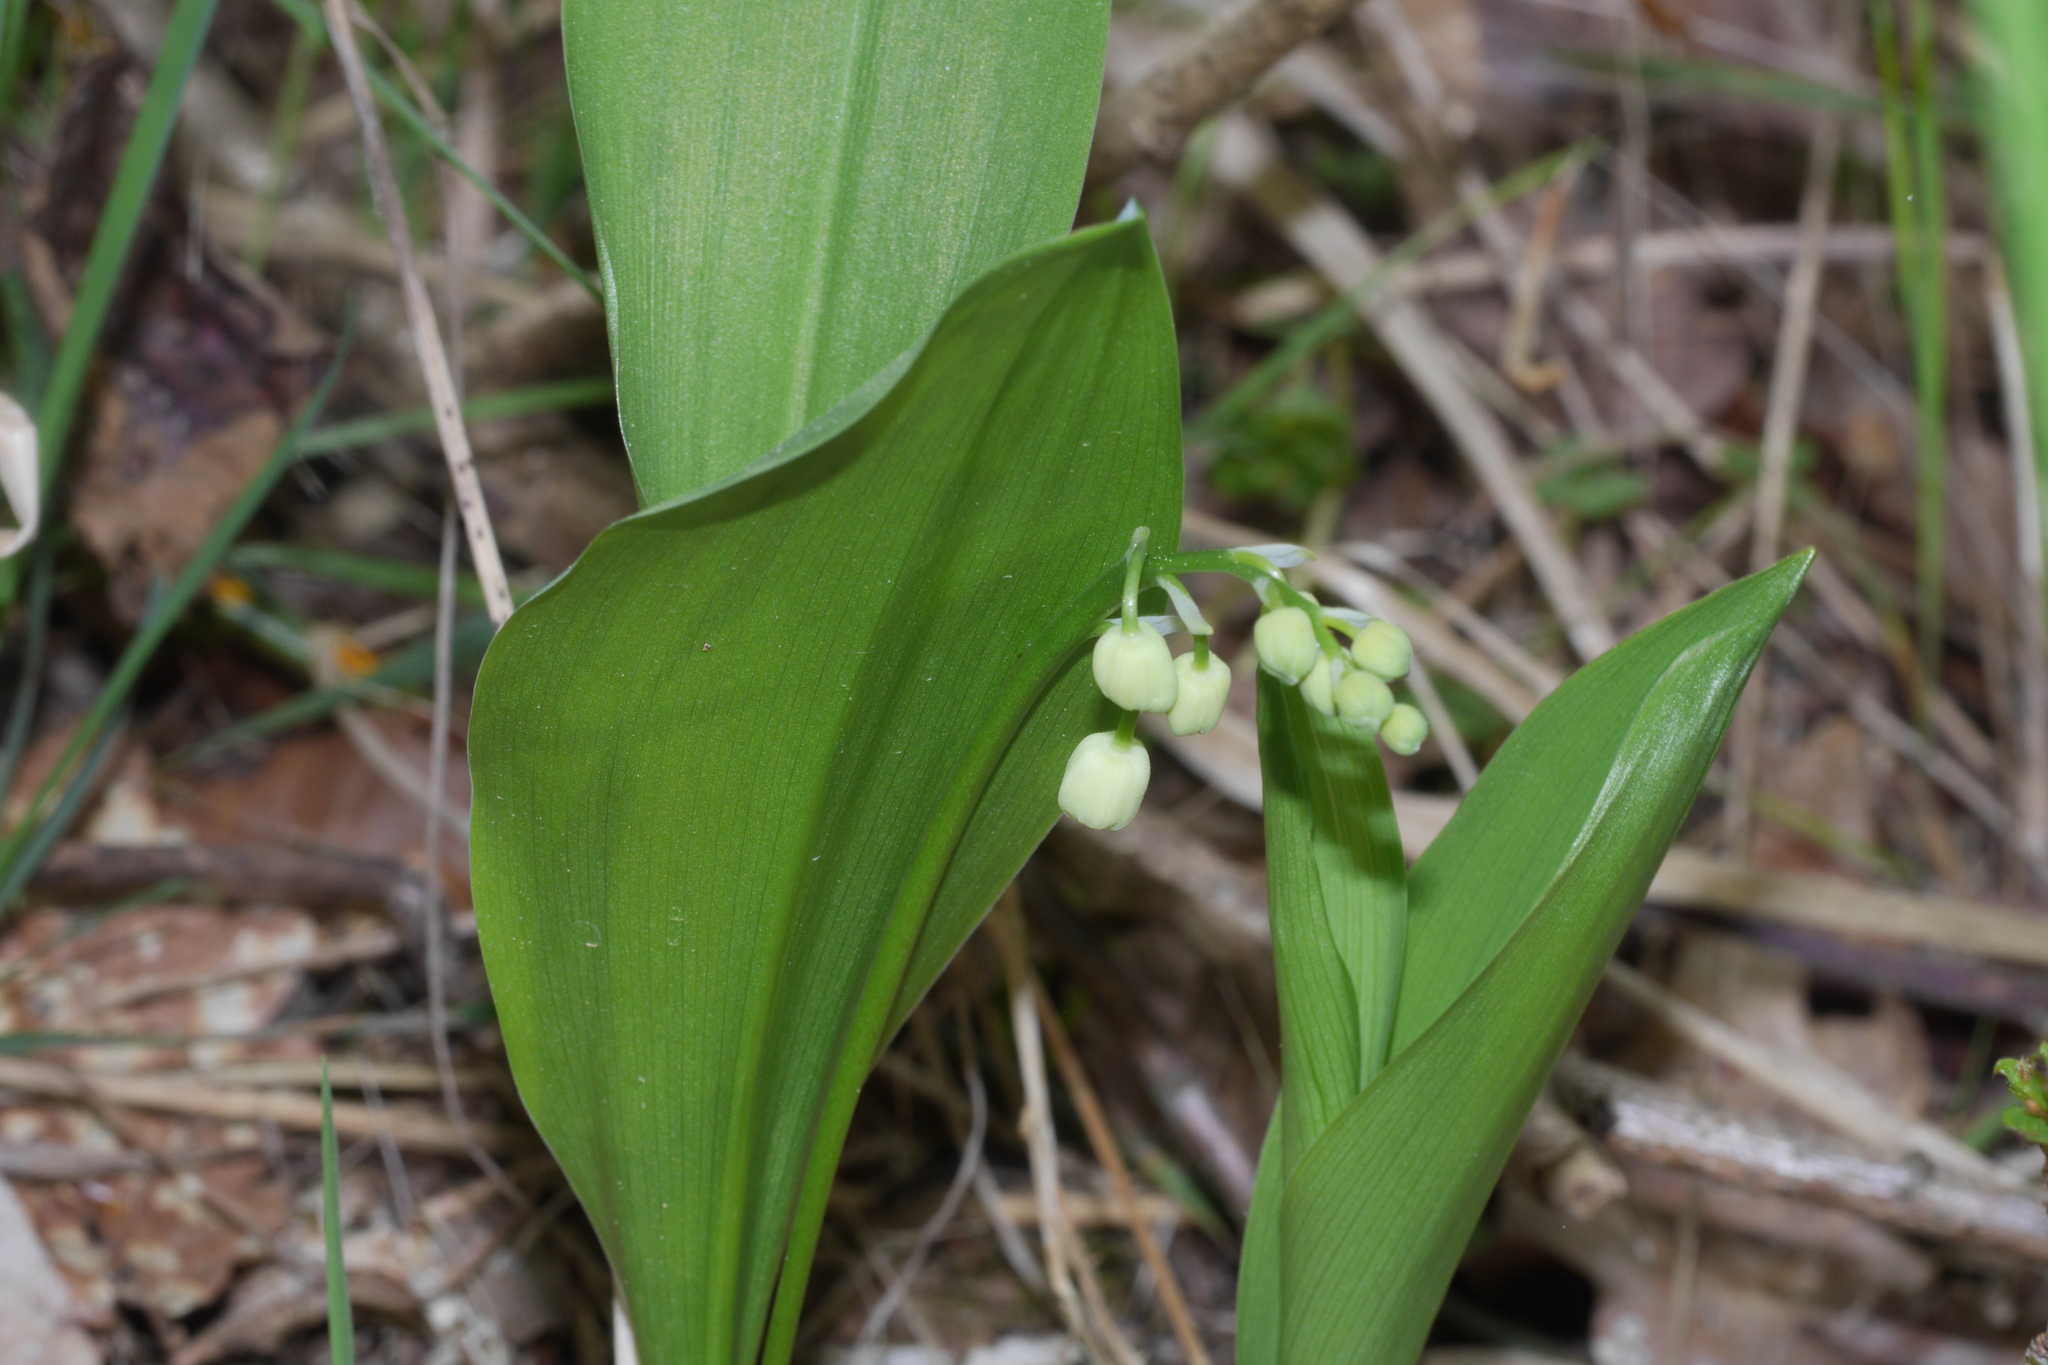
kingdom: Plantae
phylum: Tracheophyta
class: Liliopsida
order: Asparagales
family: Asparagaceae
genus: Convallaria
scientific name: Convallaria majalis
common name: Lily-of-the-valley
